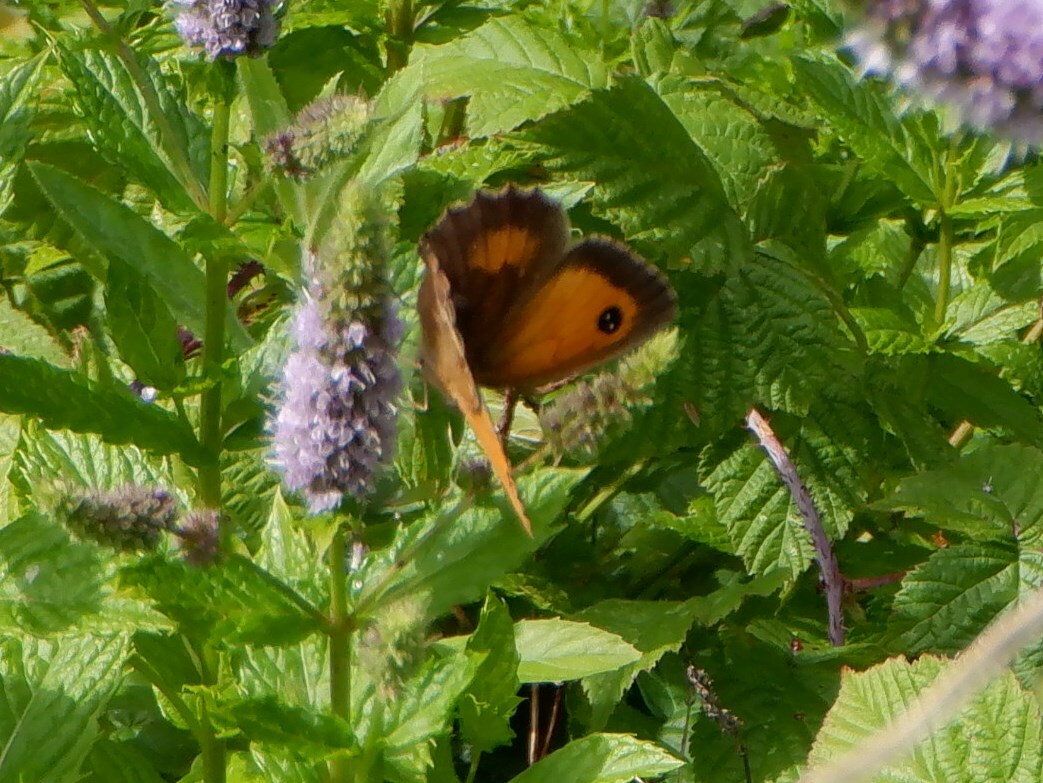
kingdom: Animalia
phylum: Arthropoda
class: Insecta
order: Lepidoptera
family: Nymphalidae
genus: Pyronia
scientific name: Pyronia tithonus
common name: Gatekeeper
